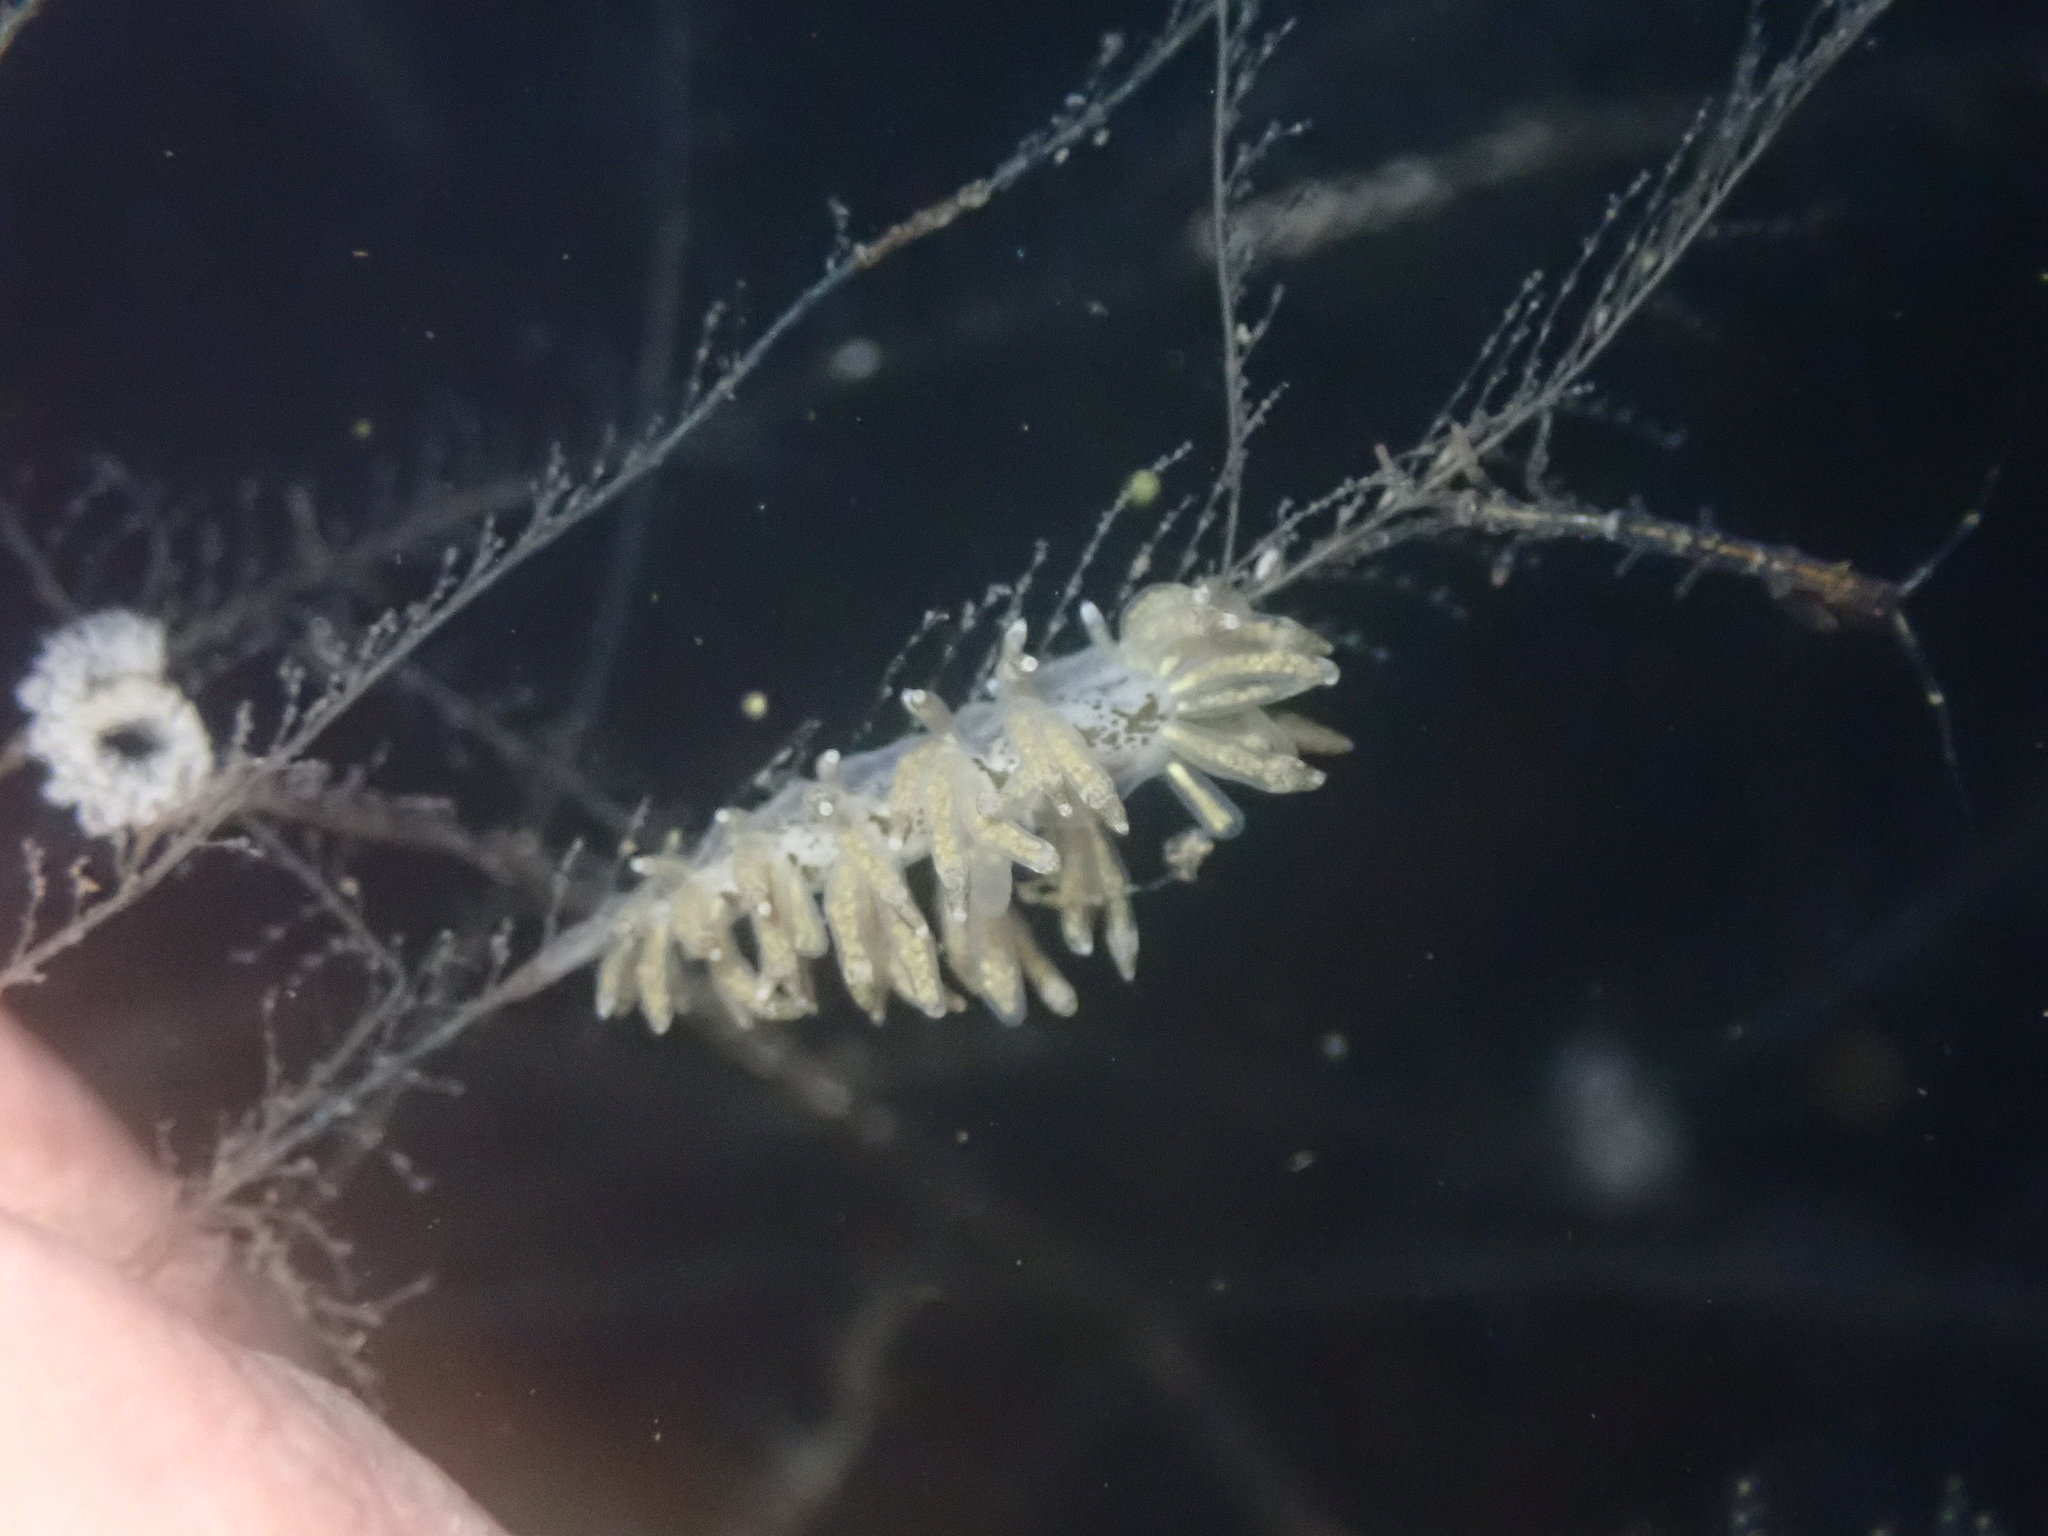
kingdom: Animalia
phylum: Mollusca
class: Gastropoda
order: Nudibranchia
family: Eubranchidae
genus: Eubranchus
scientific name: Eubranchus rustyus
